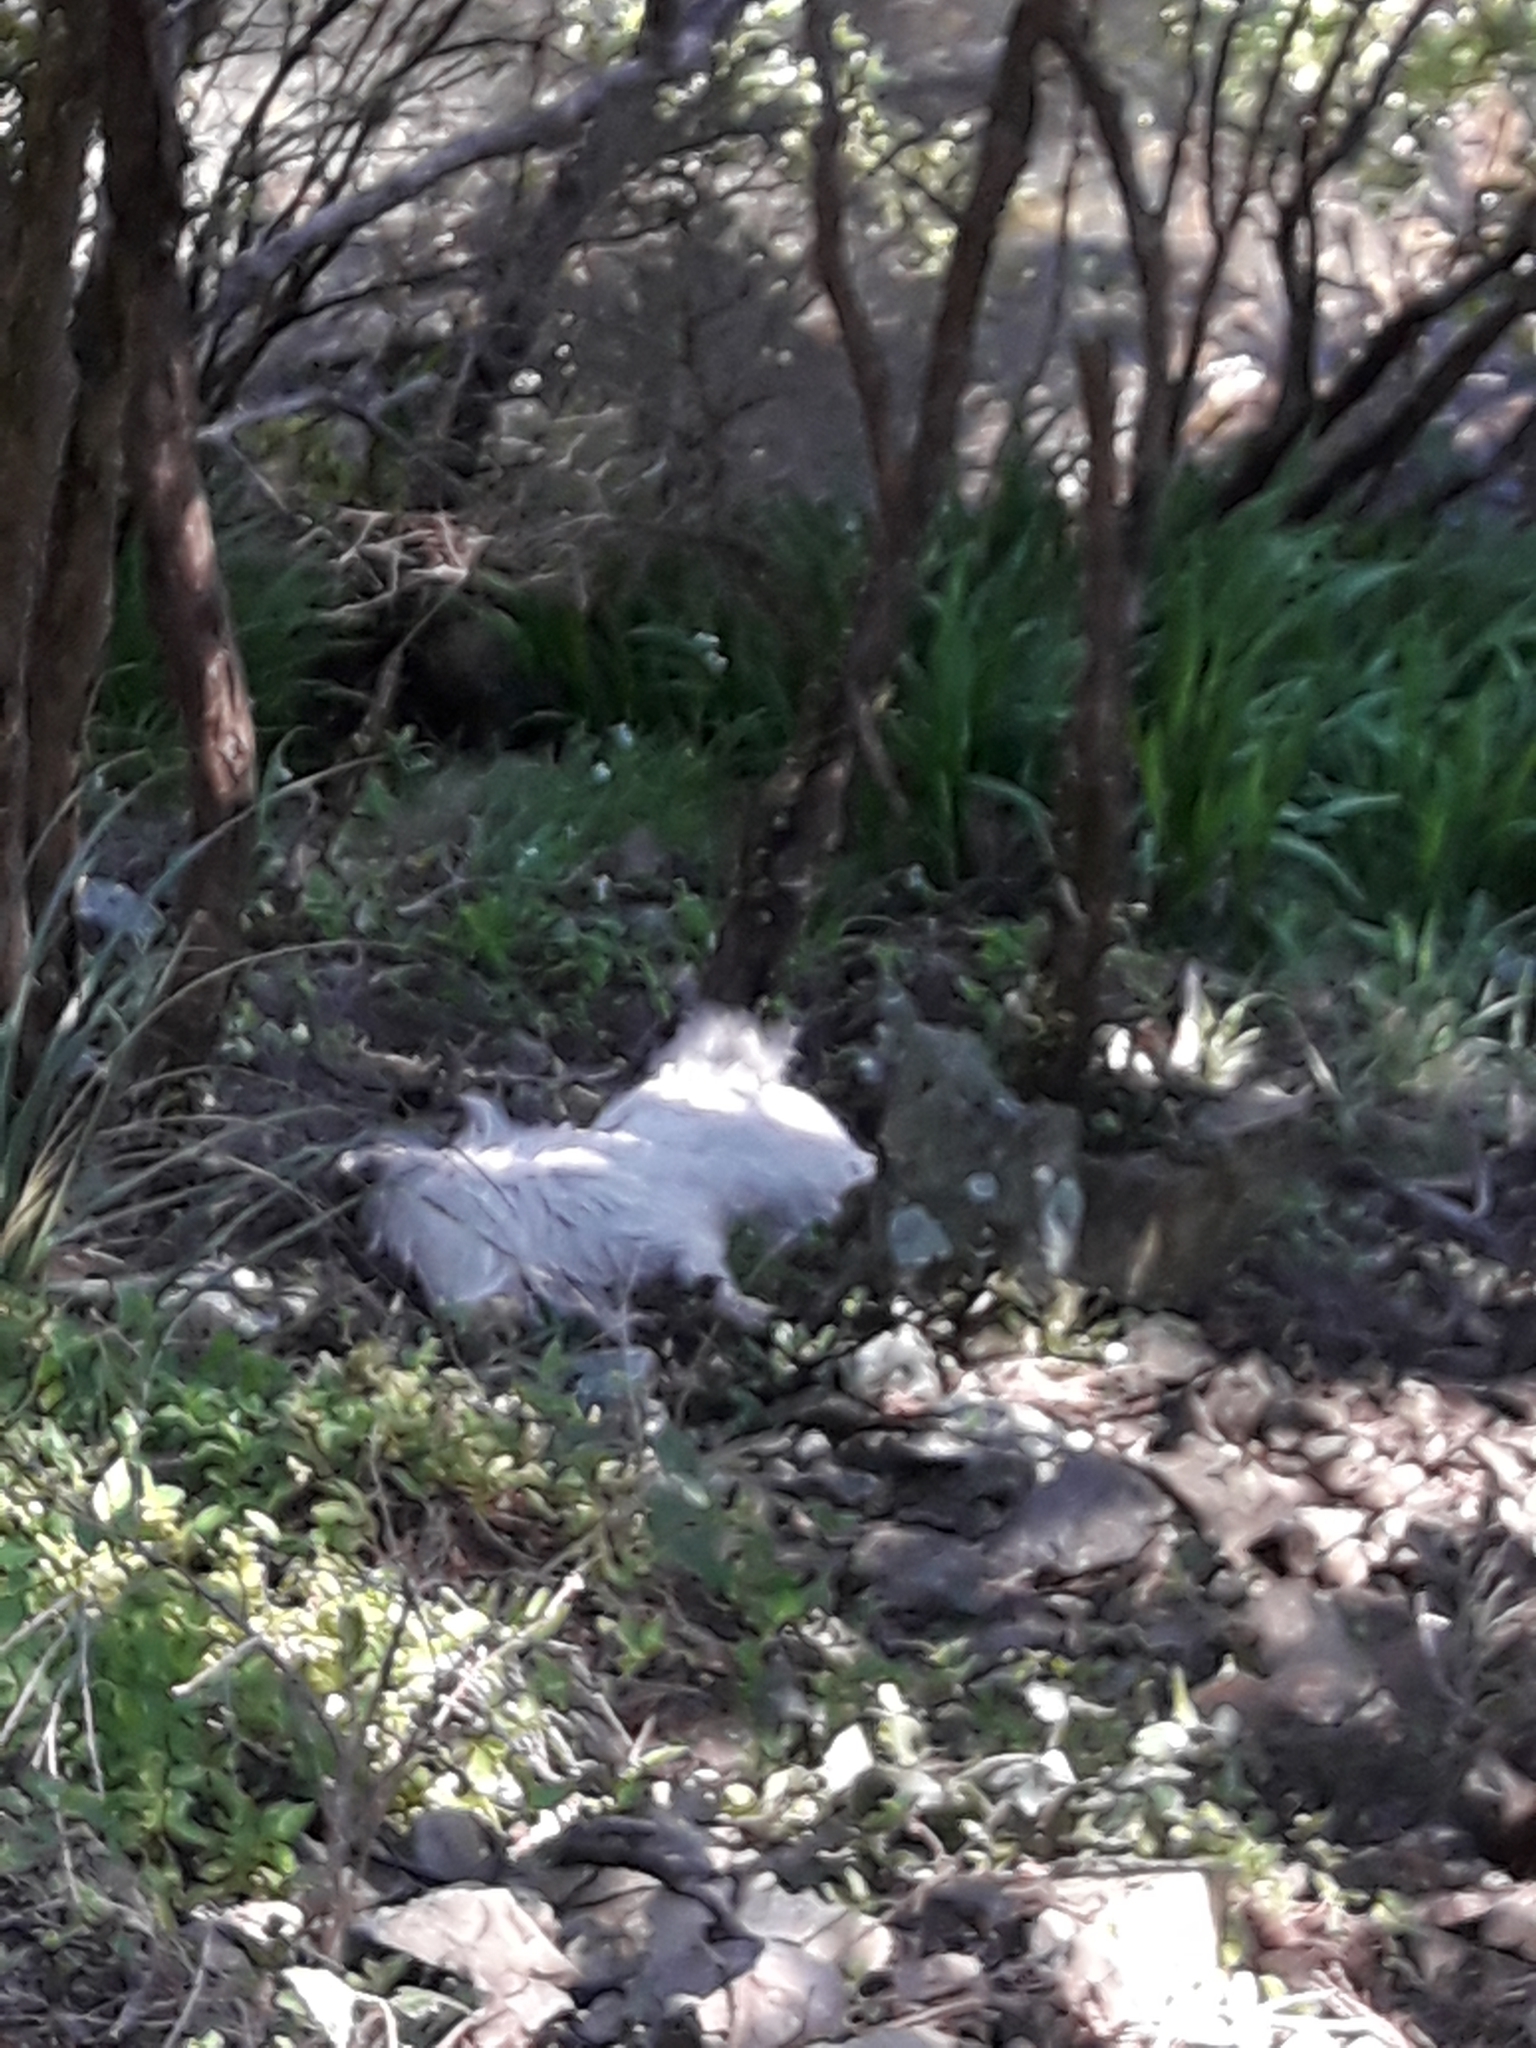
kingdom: Animalia
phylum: Chordata
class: Mammalia
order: Artiodactyla
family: Bovidae
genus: Capra
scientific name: Capra hircus
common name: Domestic goat
